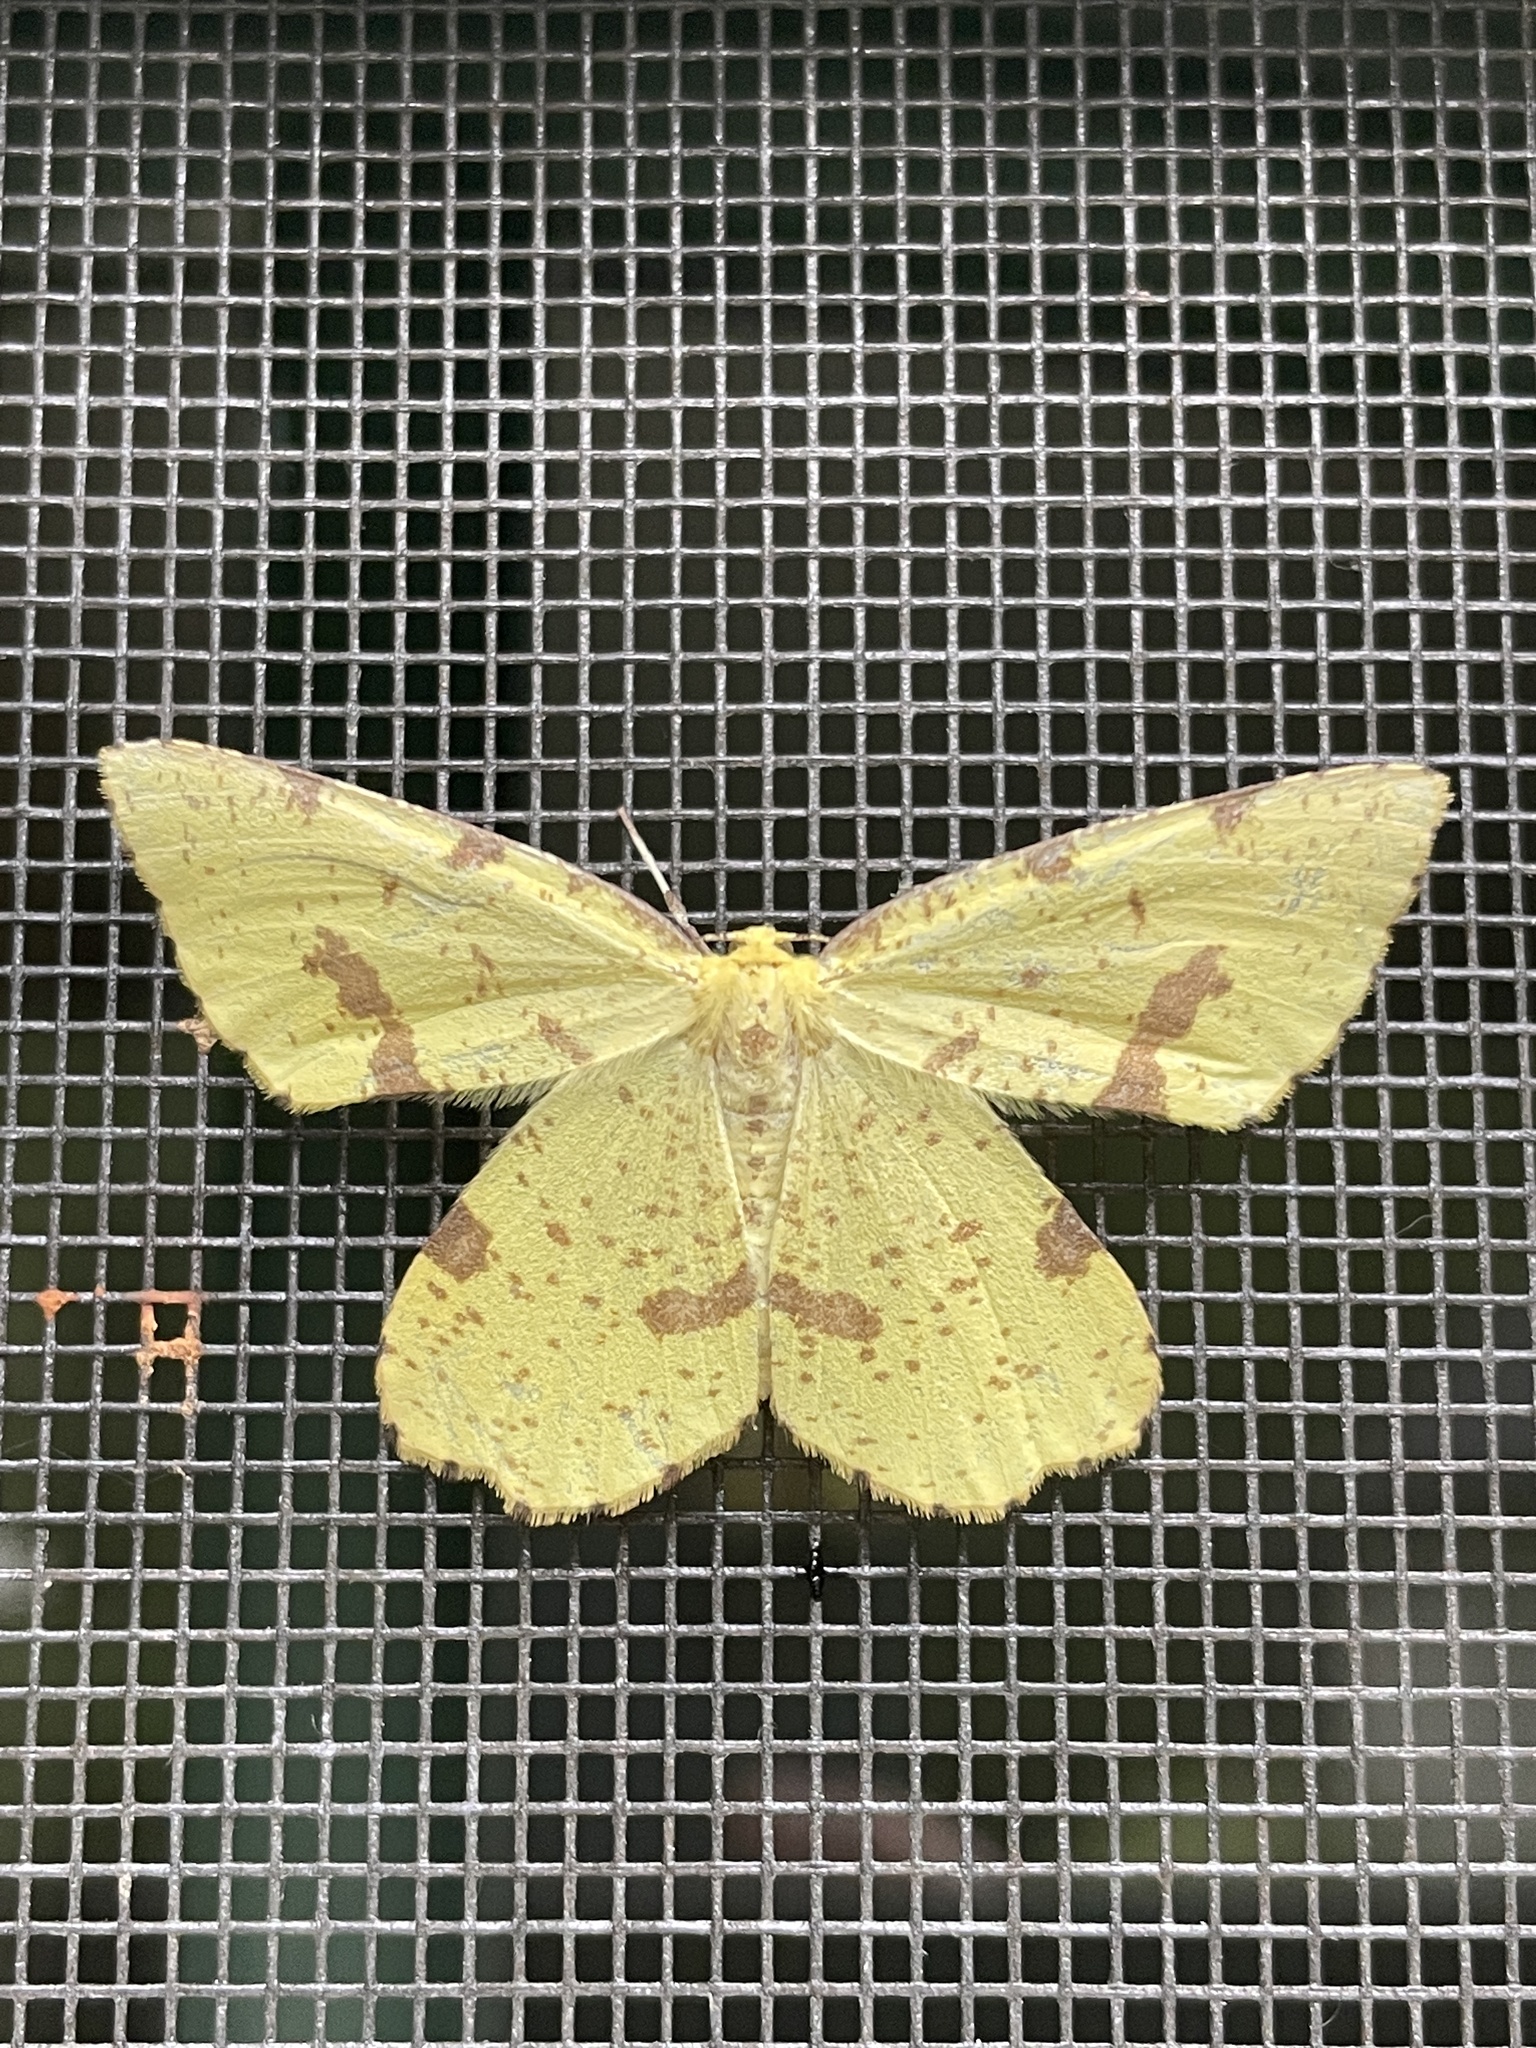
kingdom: Animalia
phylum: Arthropoda
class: Insecta
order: Lepidoptera
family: Geometridae
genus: Xanthotype
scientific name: Xanthotype
